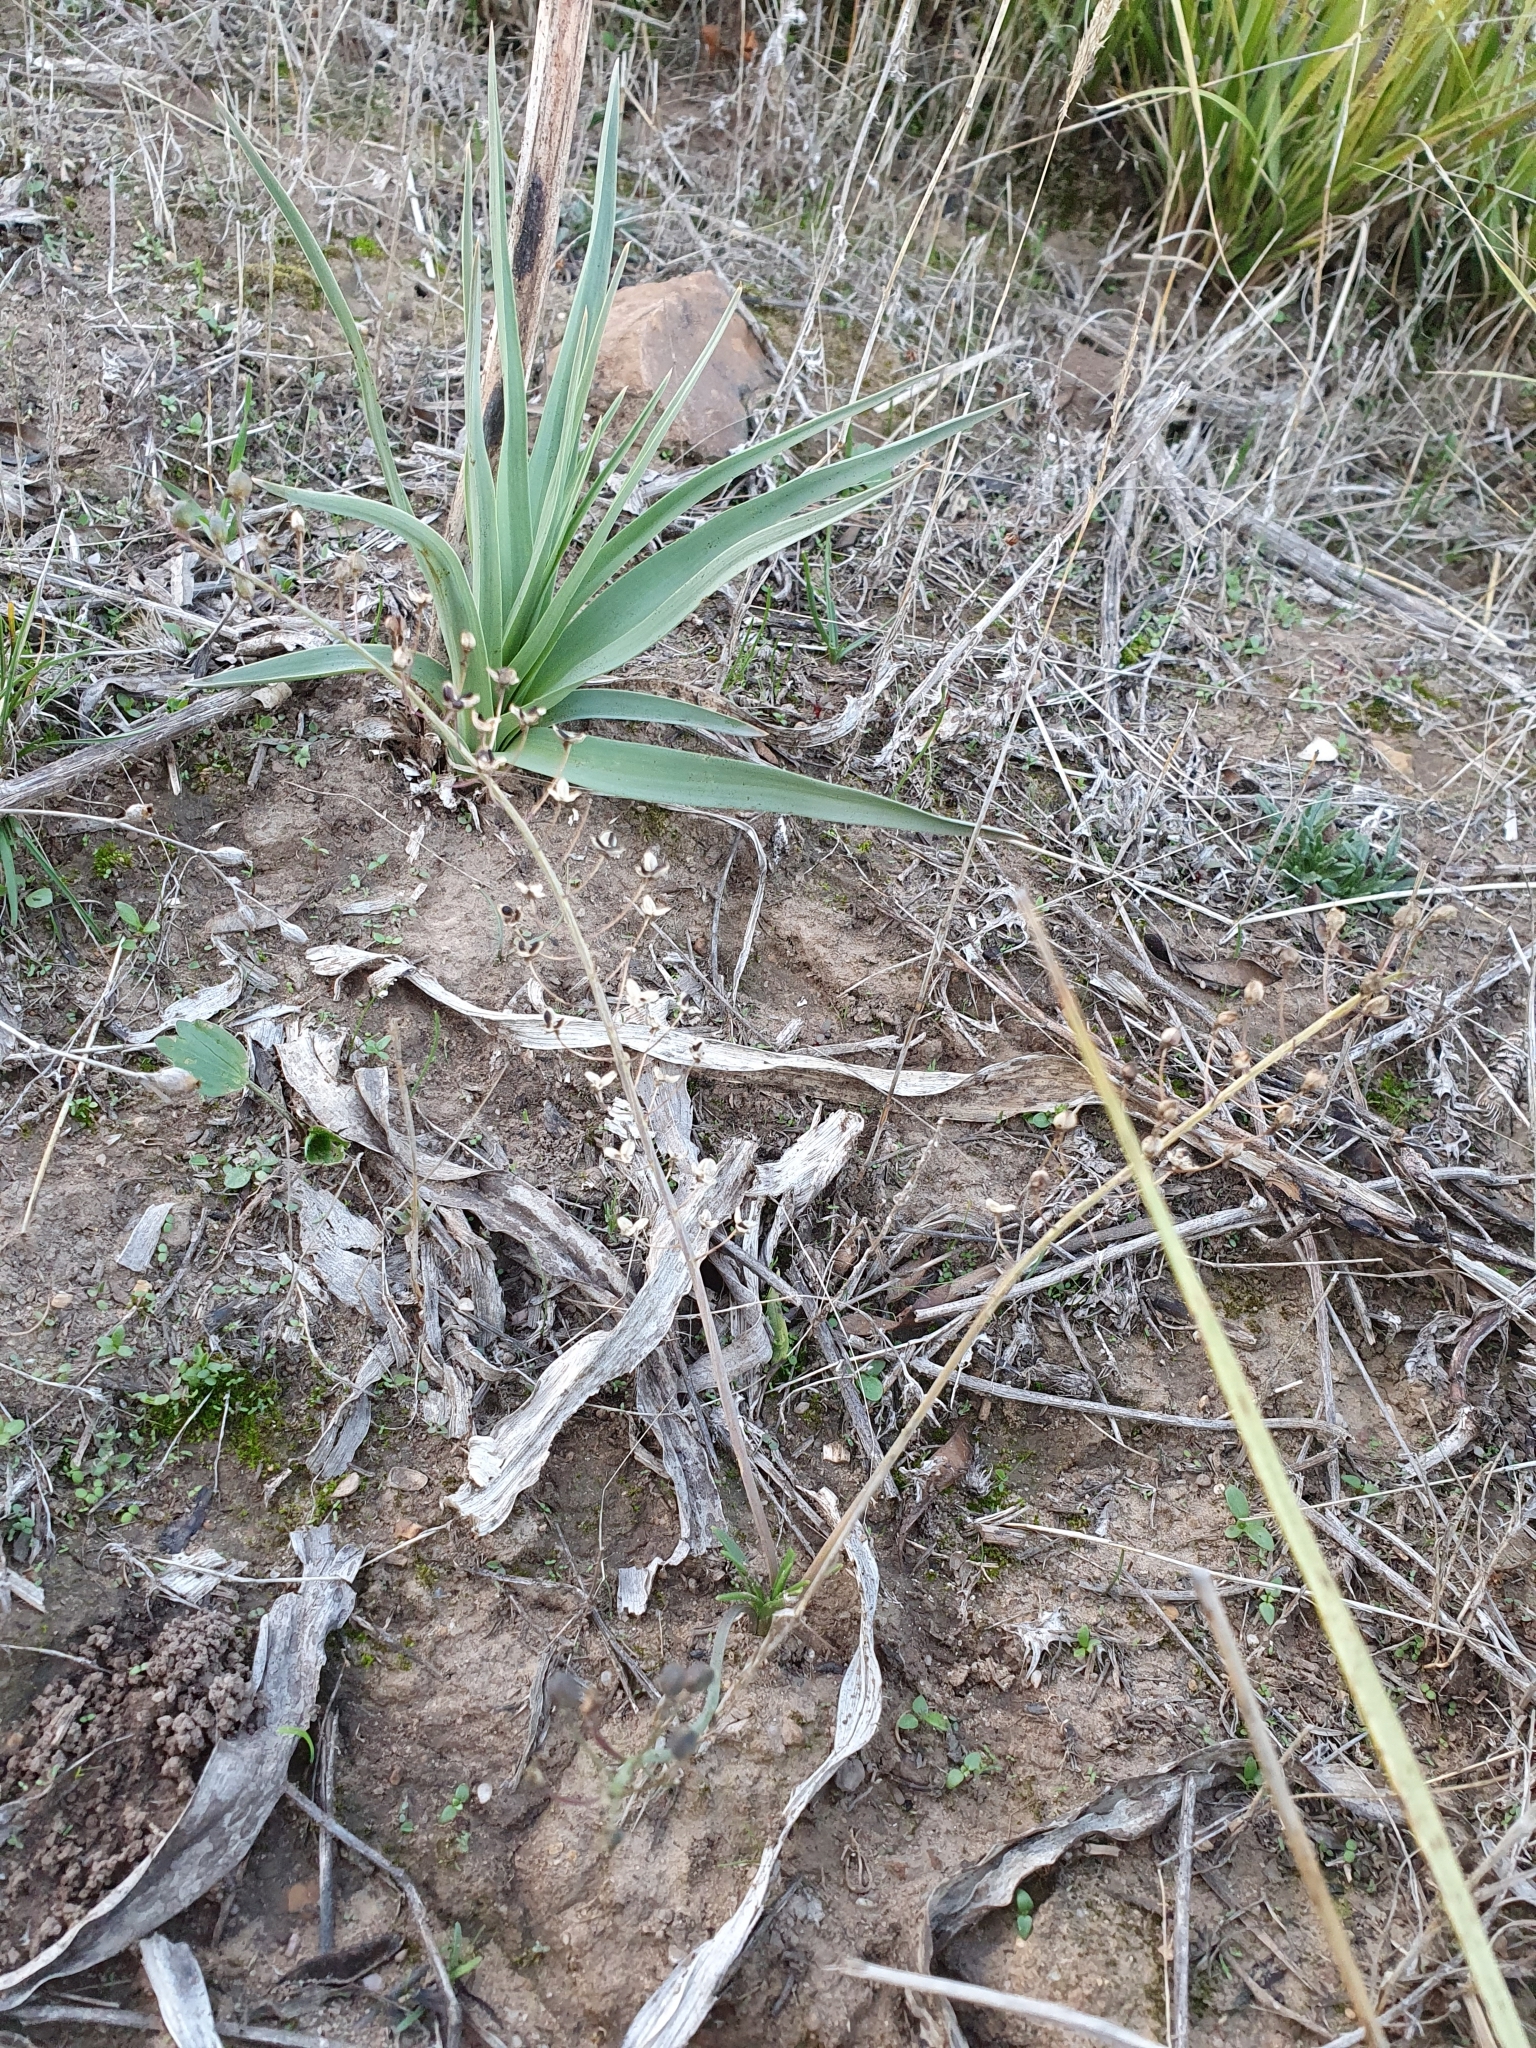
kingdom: Plantae
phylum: Tracheophyta
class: Liliopsida
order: Asparagales
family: Asparagaceae
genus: Prospero
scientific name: Prospero fallax
